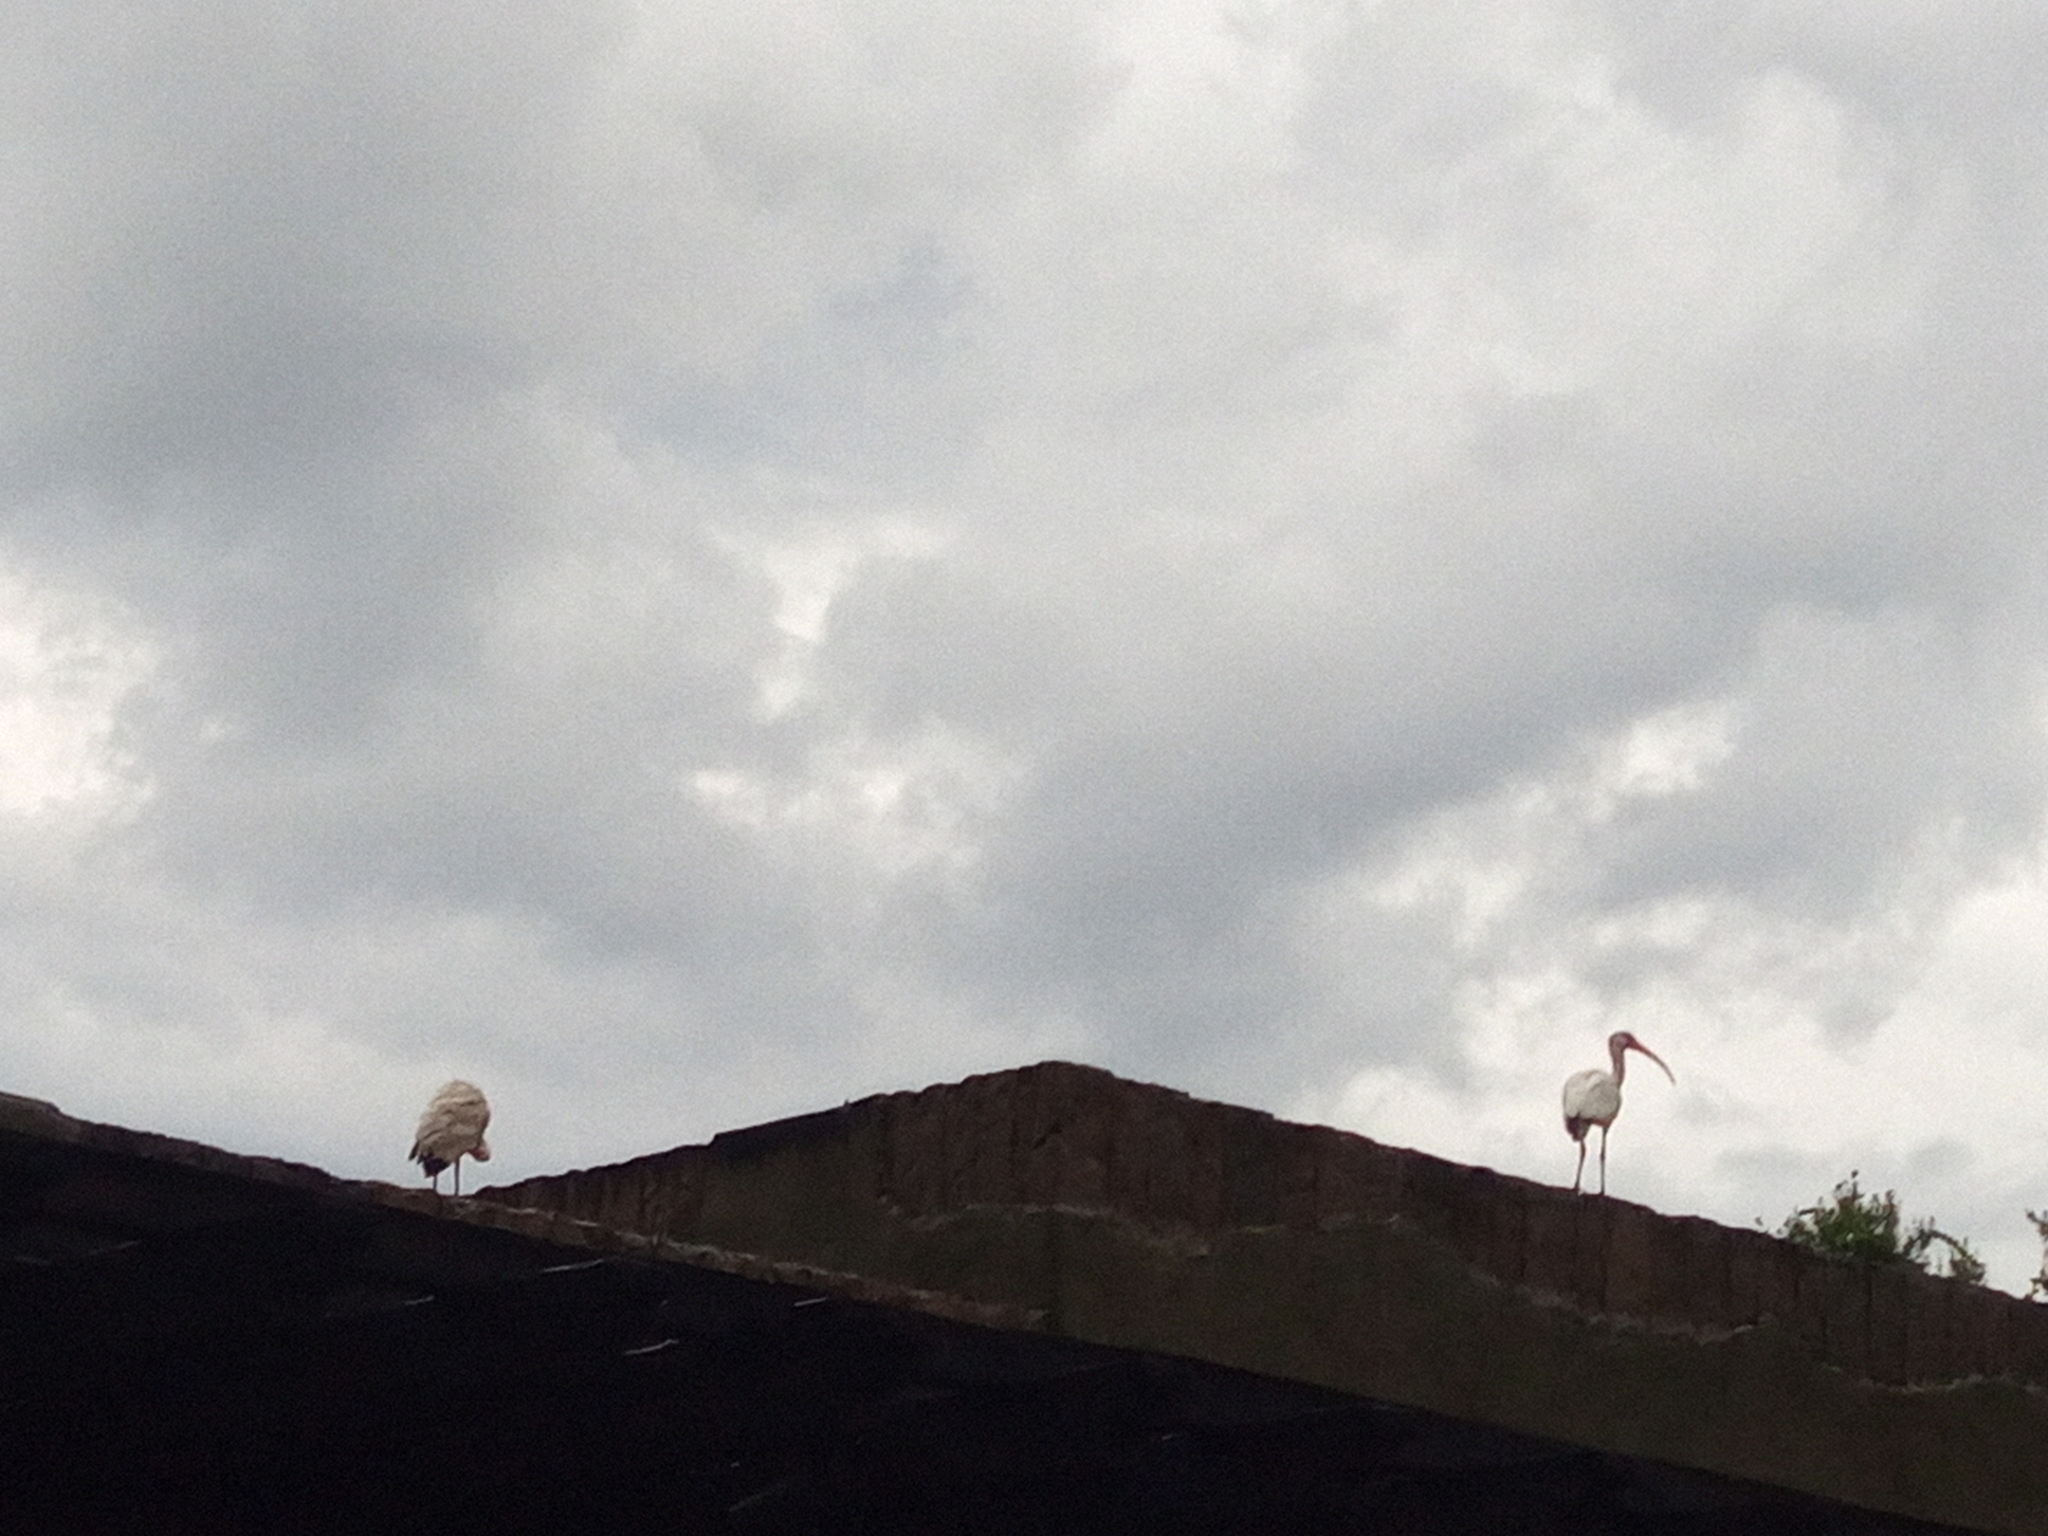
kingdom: Animalia
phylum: Chordata
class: Aves
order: Pelecaniformes
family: Threskiornithidae
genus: Eudocimus
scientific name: Eudocimus albus
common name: White ibis
